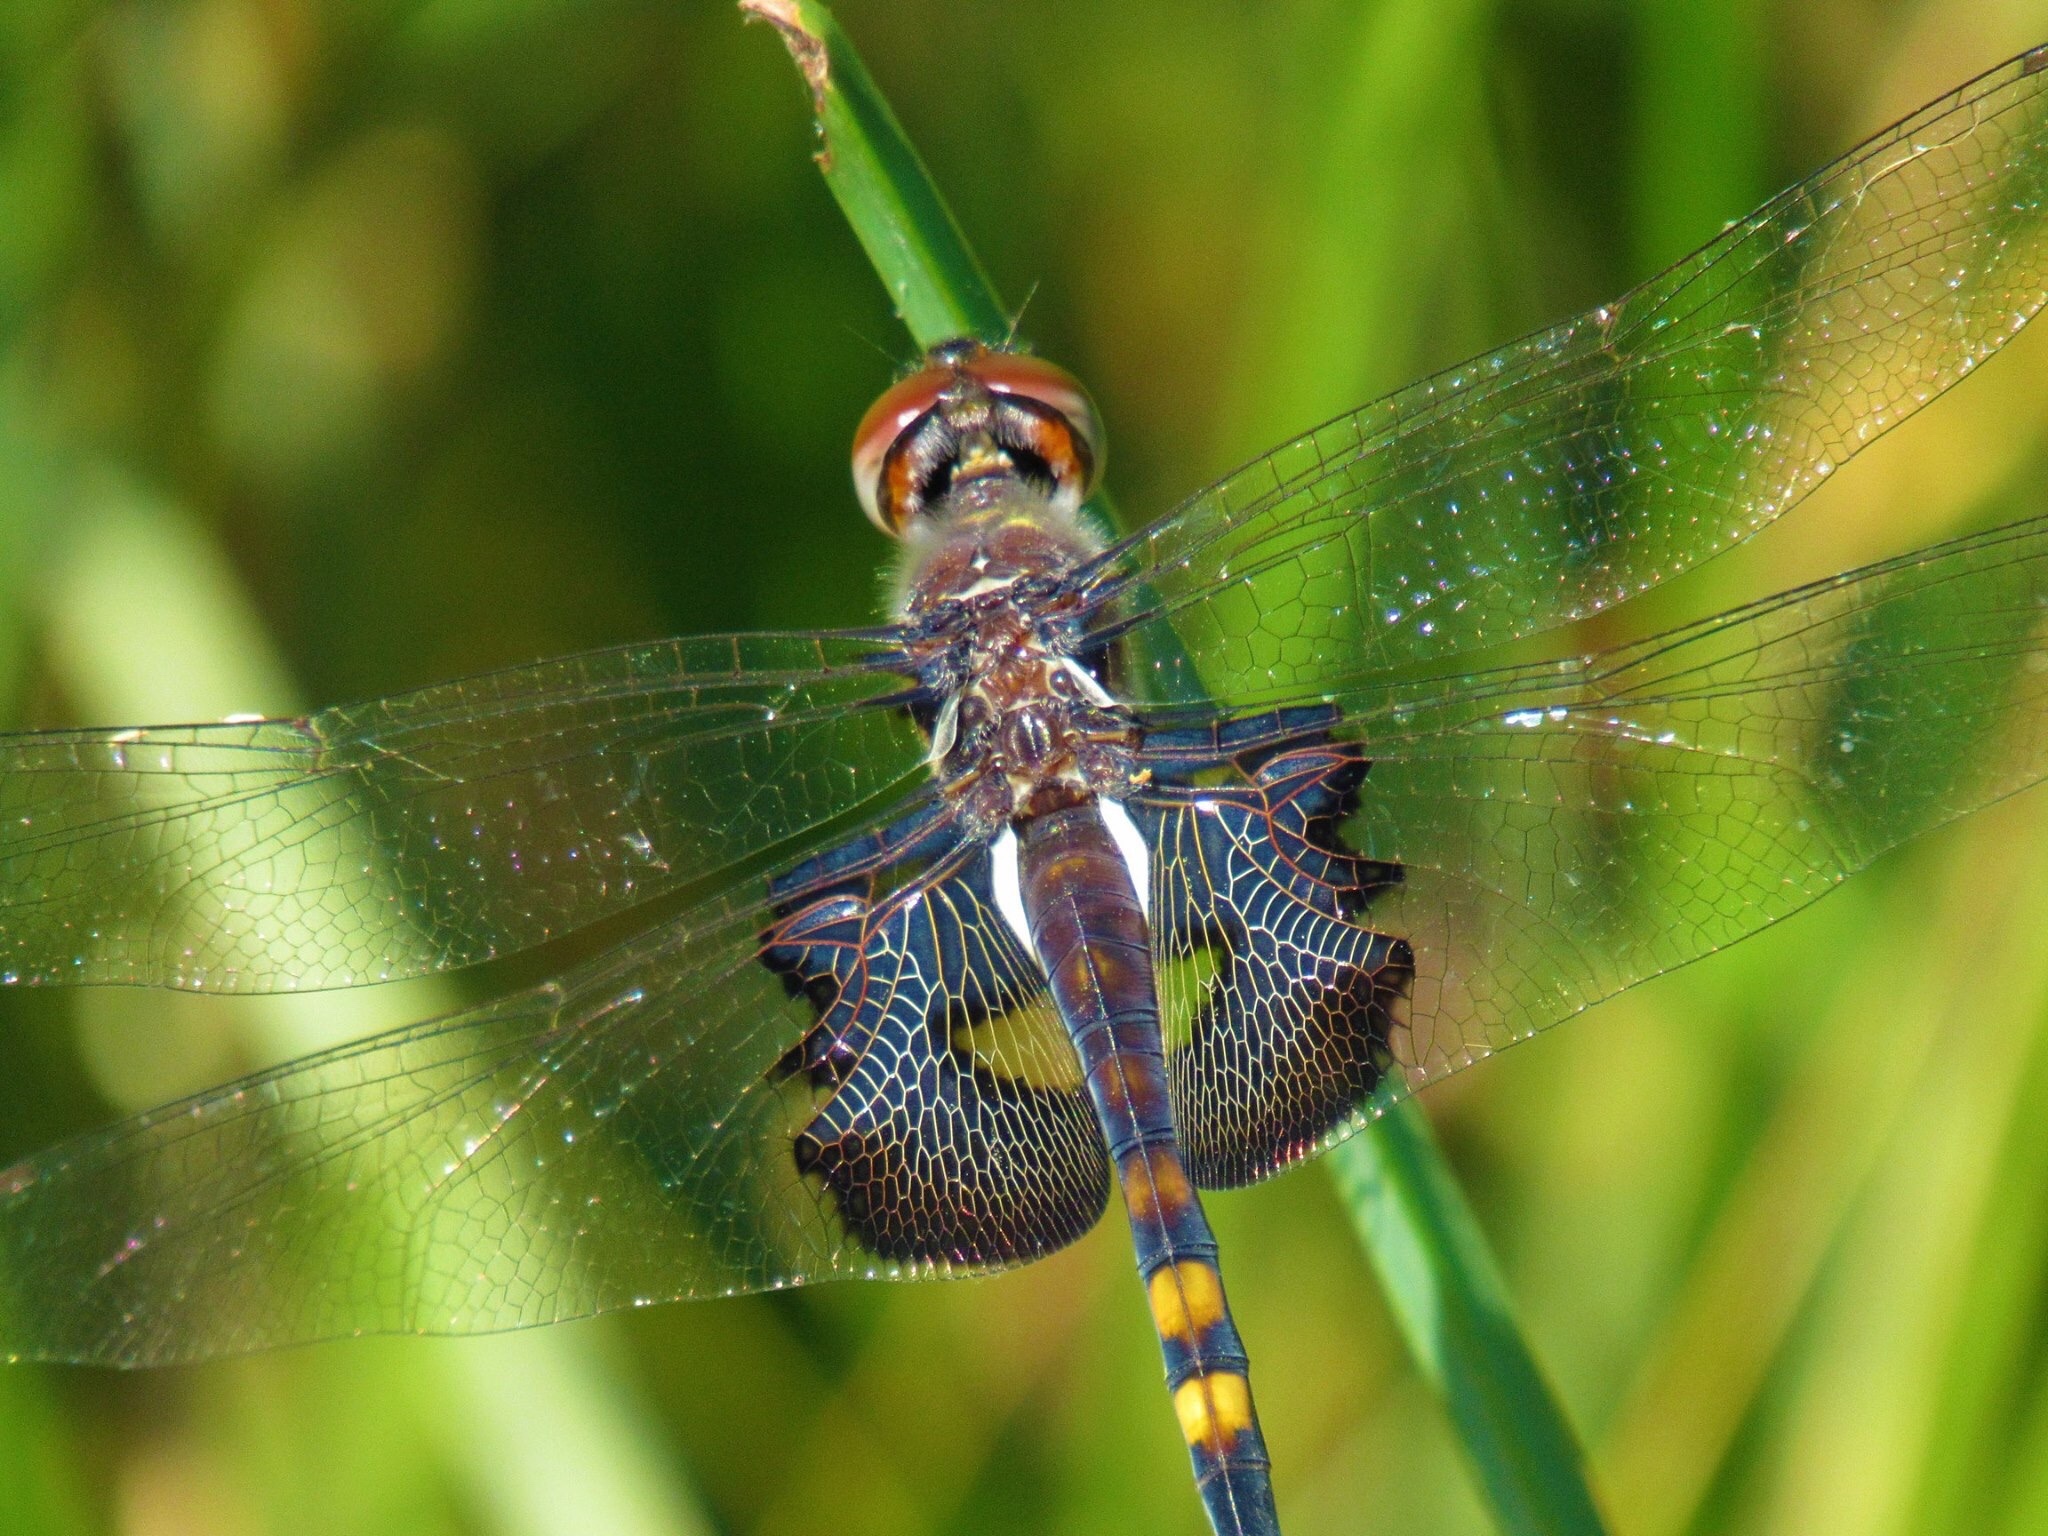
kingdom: Animalia
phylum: Arthropoda
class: Insecta
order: Odonata
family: Libellulidae
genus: Tramea
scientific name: Tramea lacerata
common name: Black saddlebags
